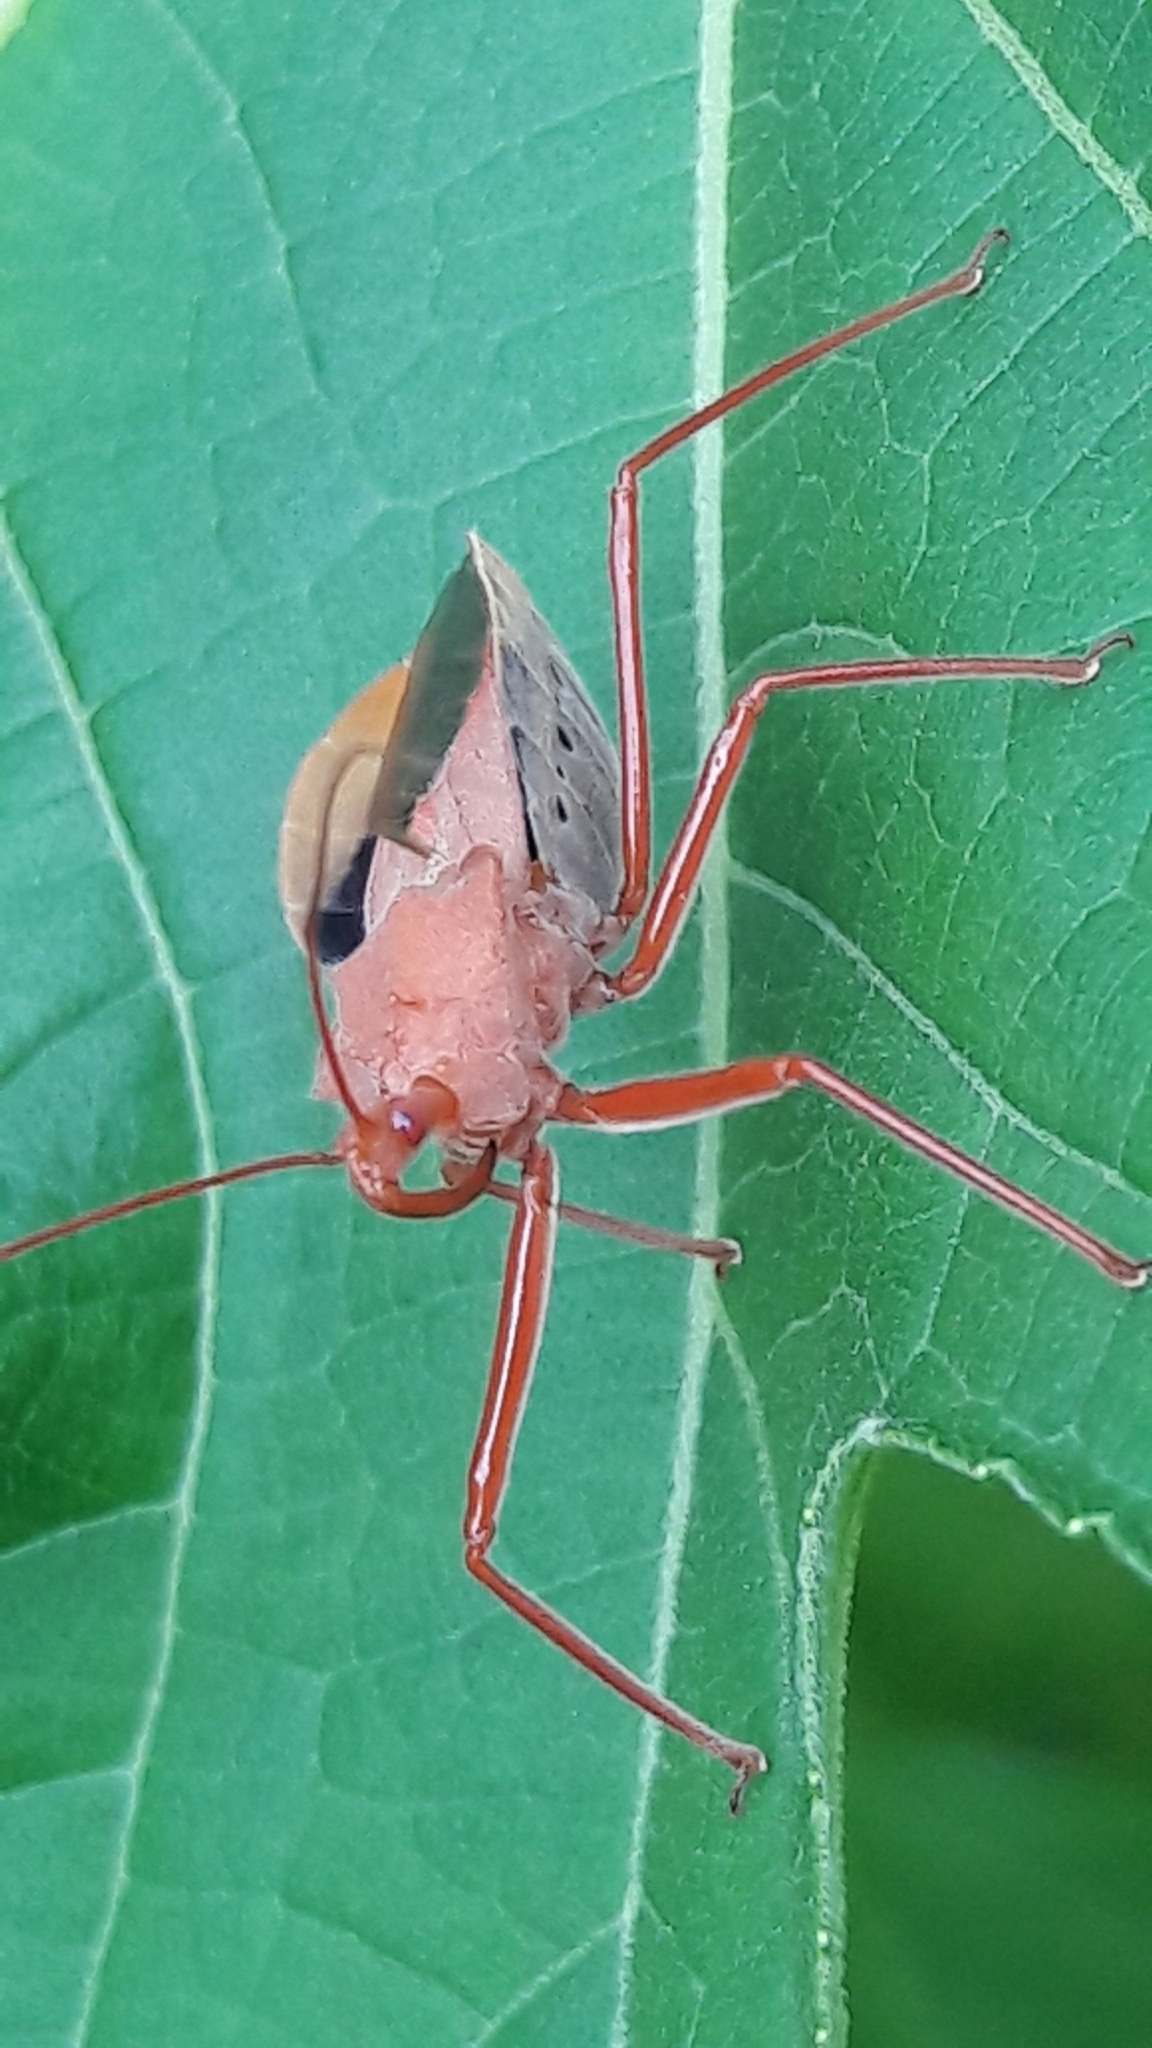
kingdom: Animalia
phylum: Arthropoda
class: Insecta
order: Hemiptera
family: Reduviidae
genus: Montina
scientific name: Montina confusa
